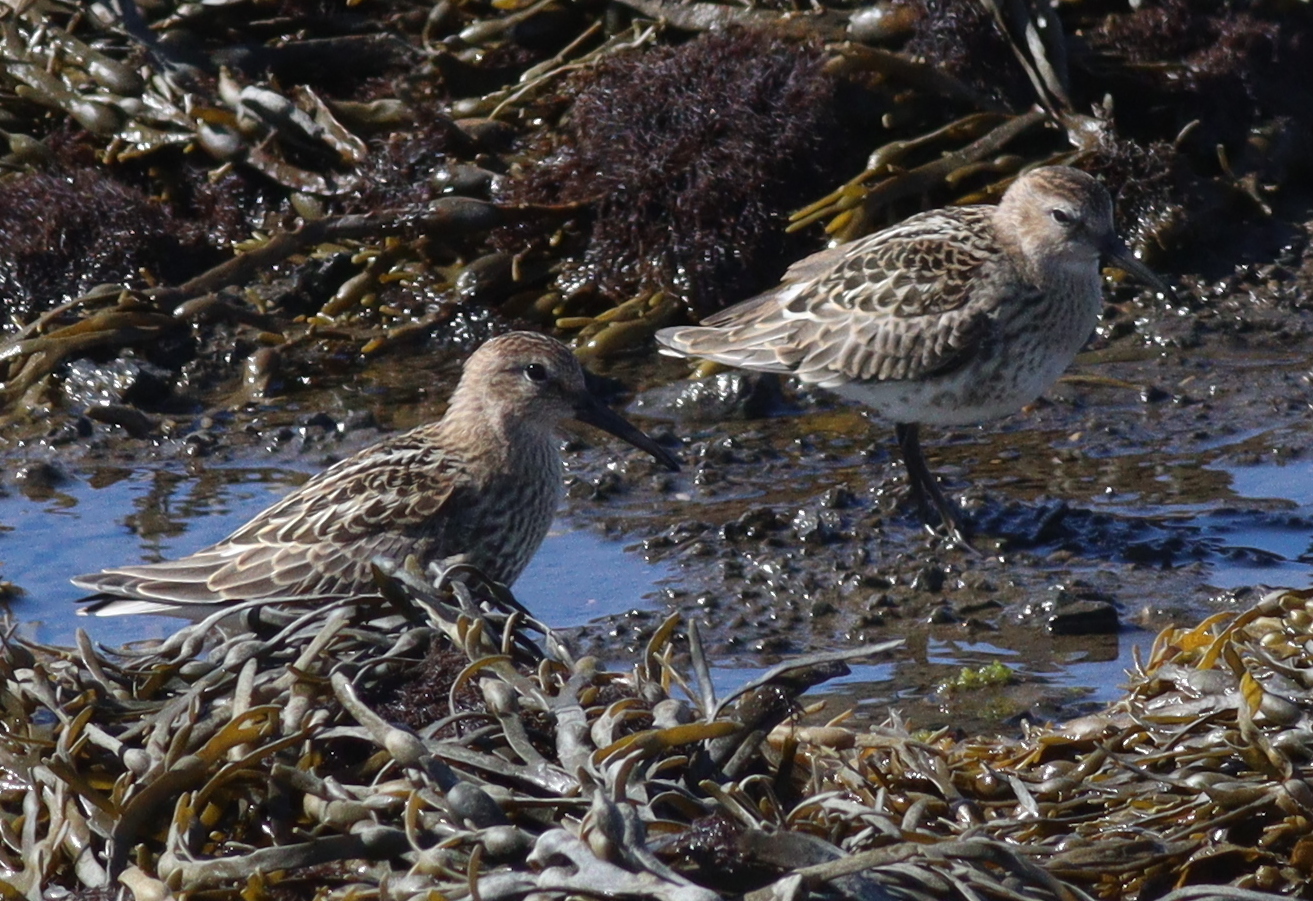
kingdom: Animalia
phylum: Chordata
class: Aves
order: Charadriiformes
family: Scolopacidae
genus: Calidris
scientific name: Calidris alpina
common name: Dunlin
